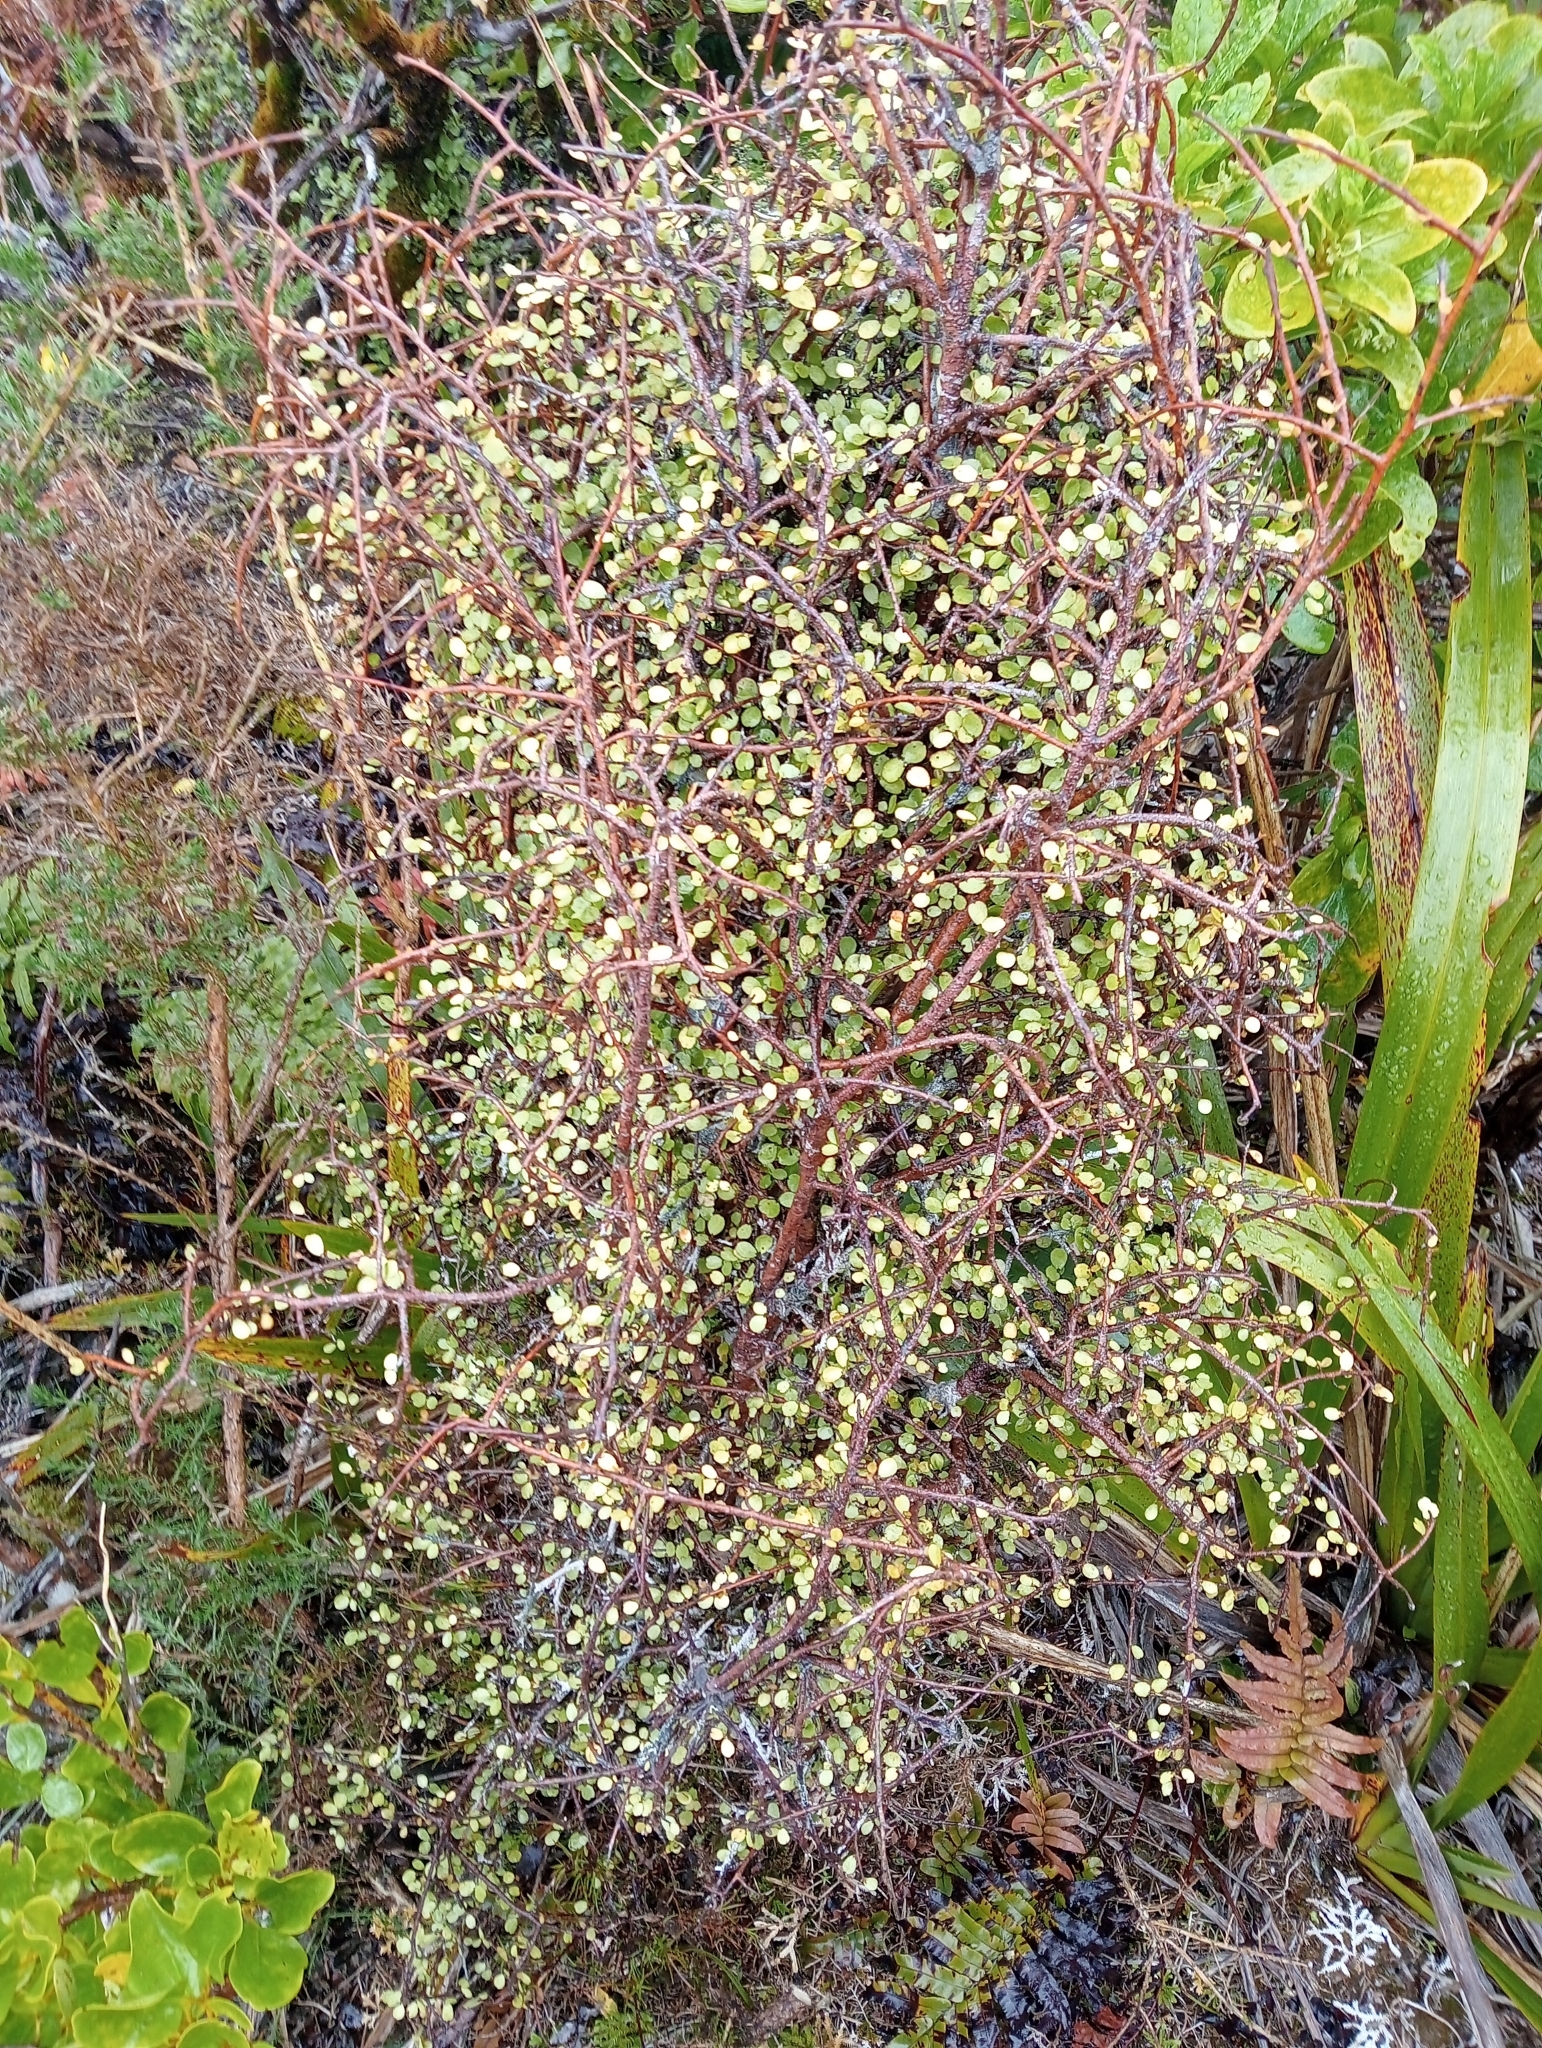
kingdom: Plantae
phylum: Tracheophyta
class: Magnoliopsida
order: Ericales
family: Primulaceae
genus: Myrsine
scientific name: Myrsine divaricata
